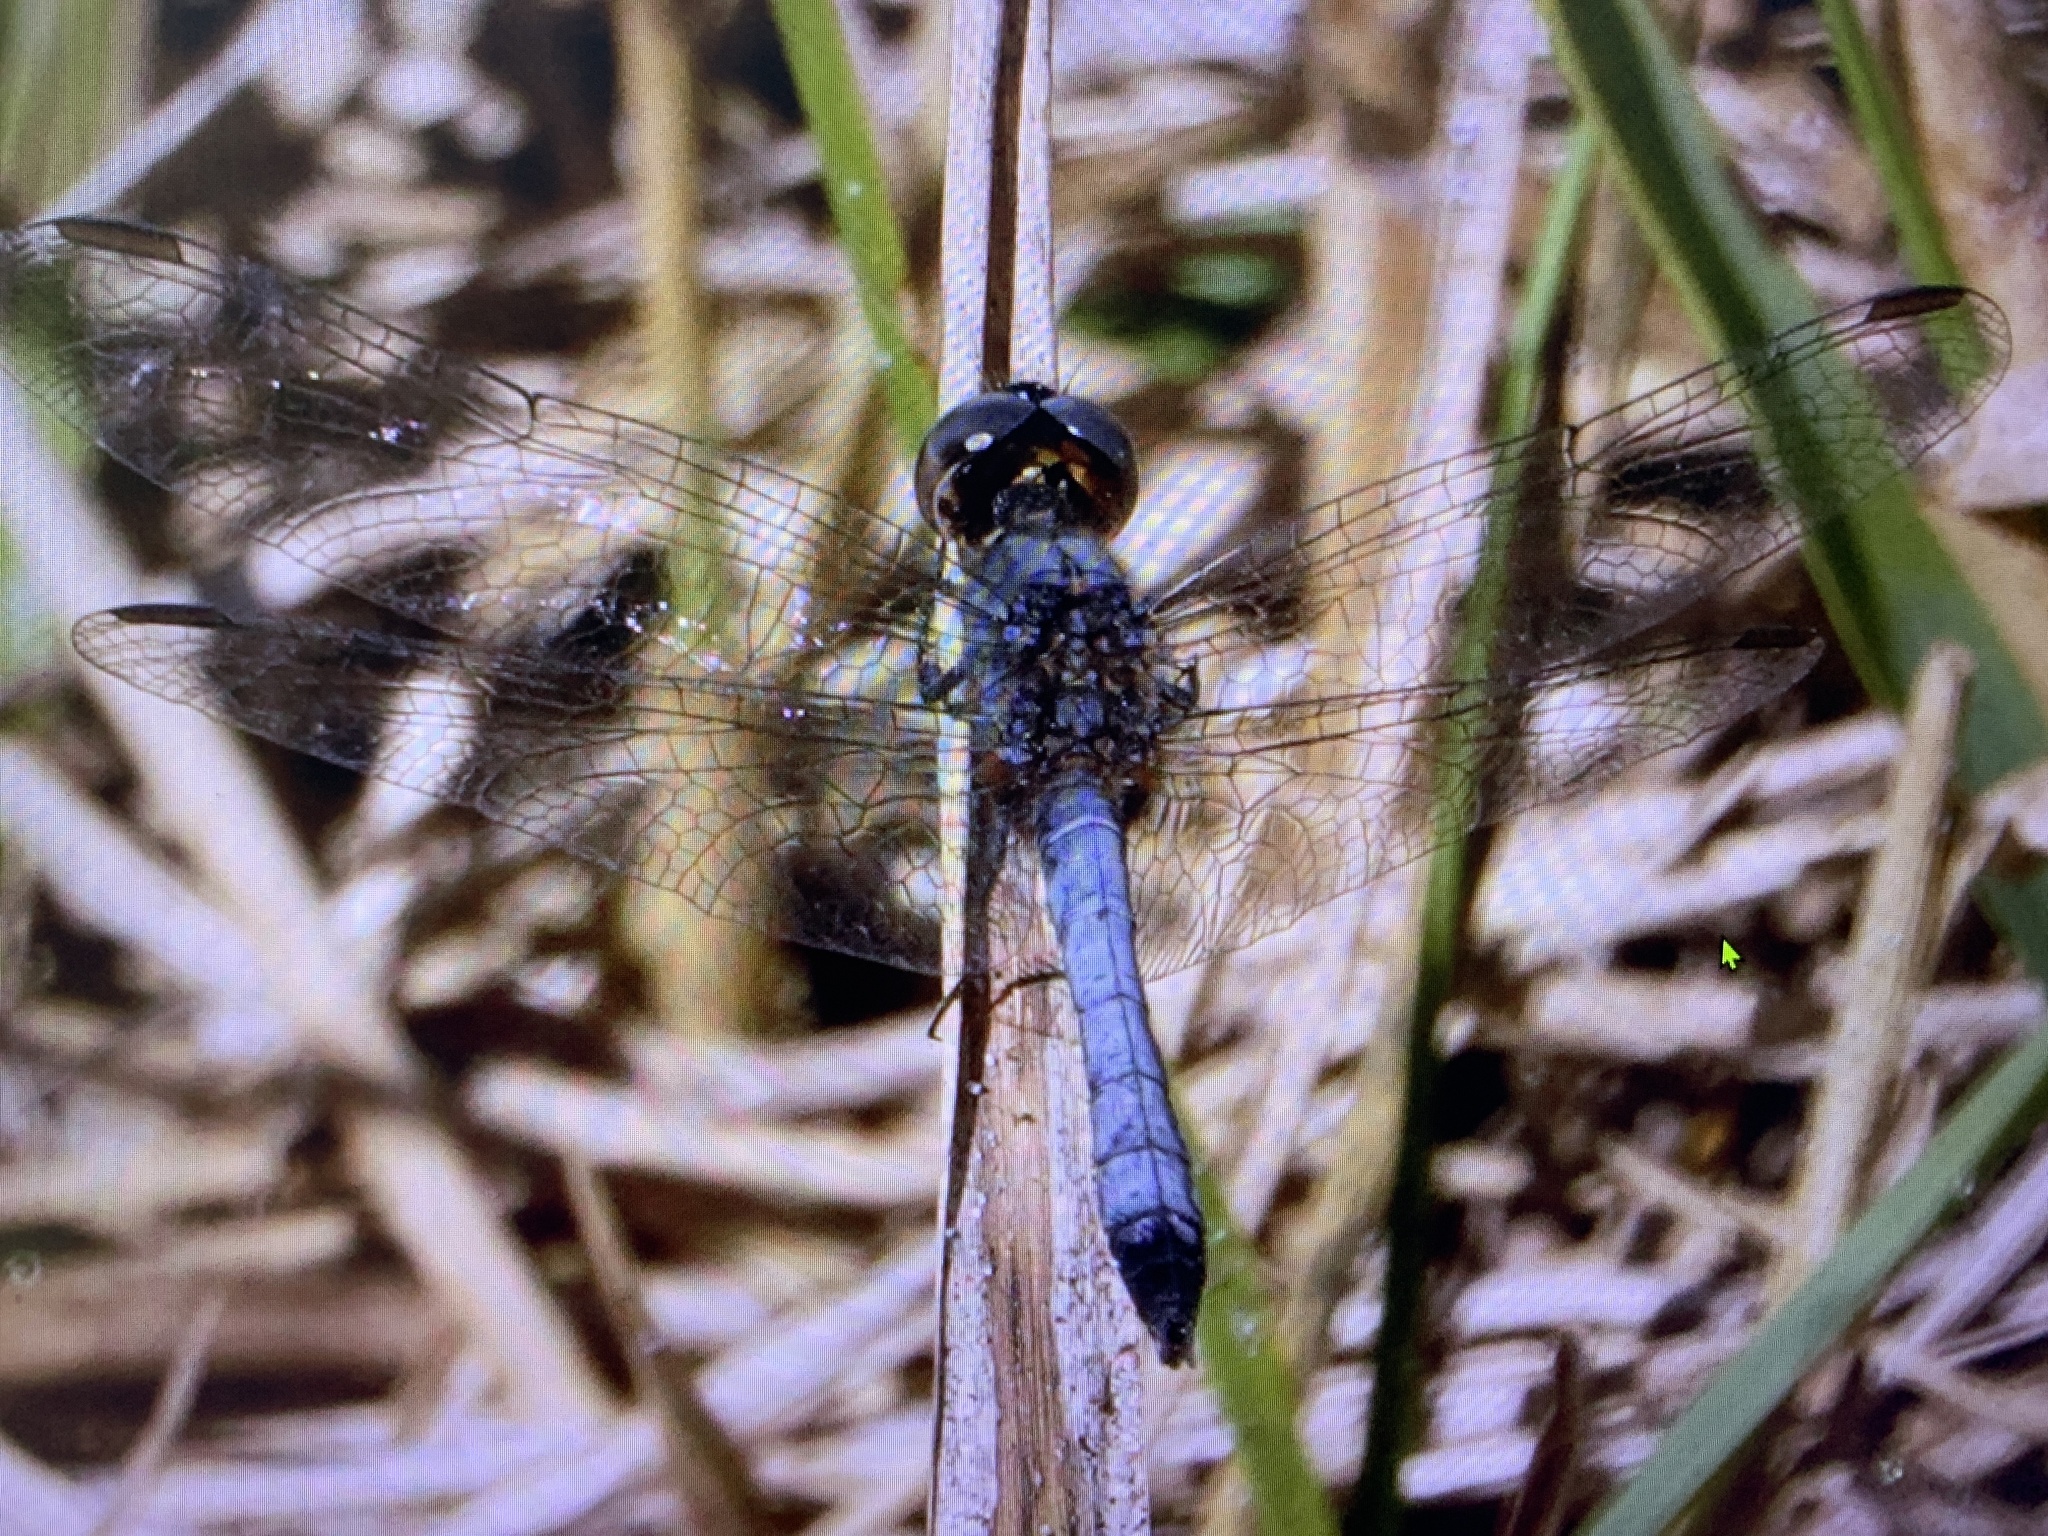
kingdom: Animalia
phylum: Arthropoda
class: Insecta
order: Odonata
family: Libellulidae
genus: Erythrodiplax
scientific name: Erythrodiplax minuscula
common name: Little blue dragonlet
